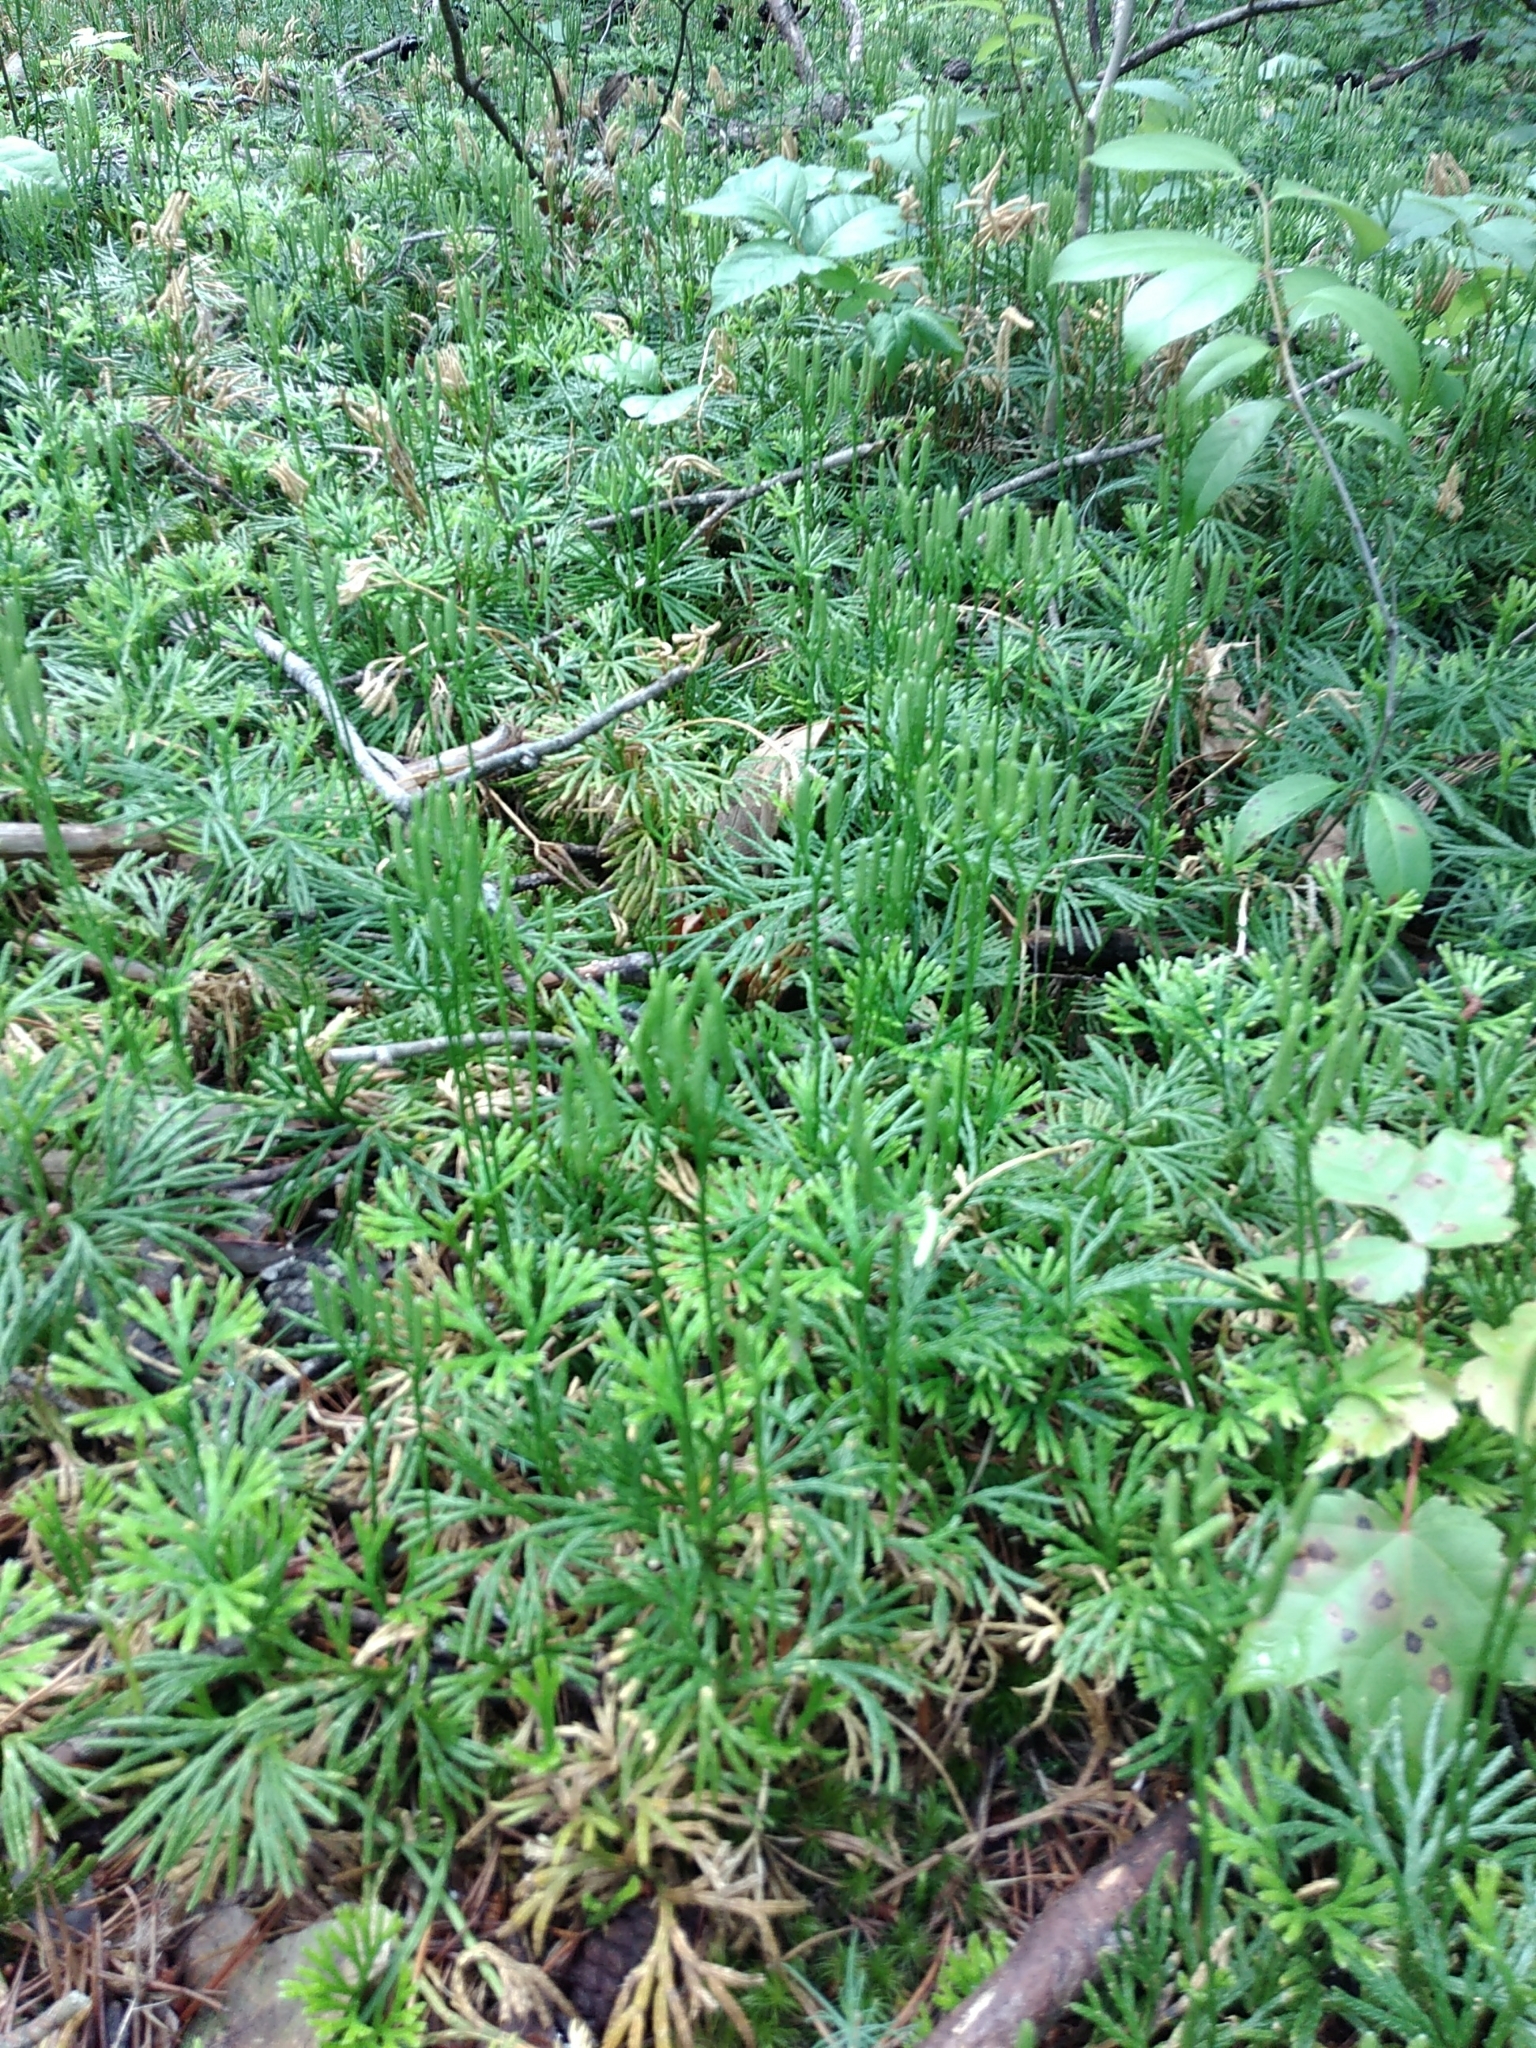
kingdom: Plantae
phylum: Tracheophyta
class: Lycopodiopsida
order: Lycopodiales
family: Lycopodiaceae
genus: Diphasiastrum
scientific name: Diphasiastrum digitatum
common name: Southern running-pine
